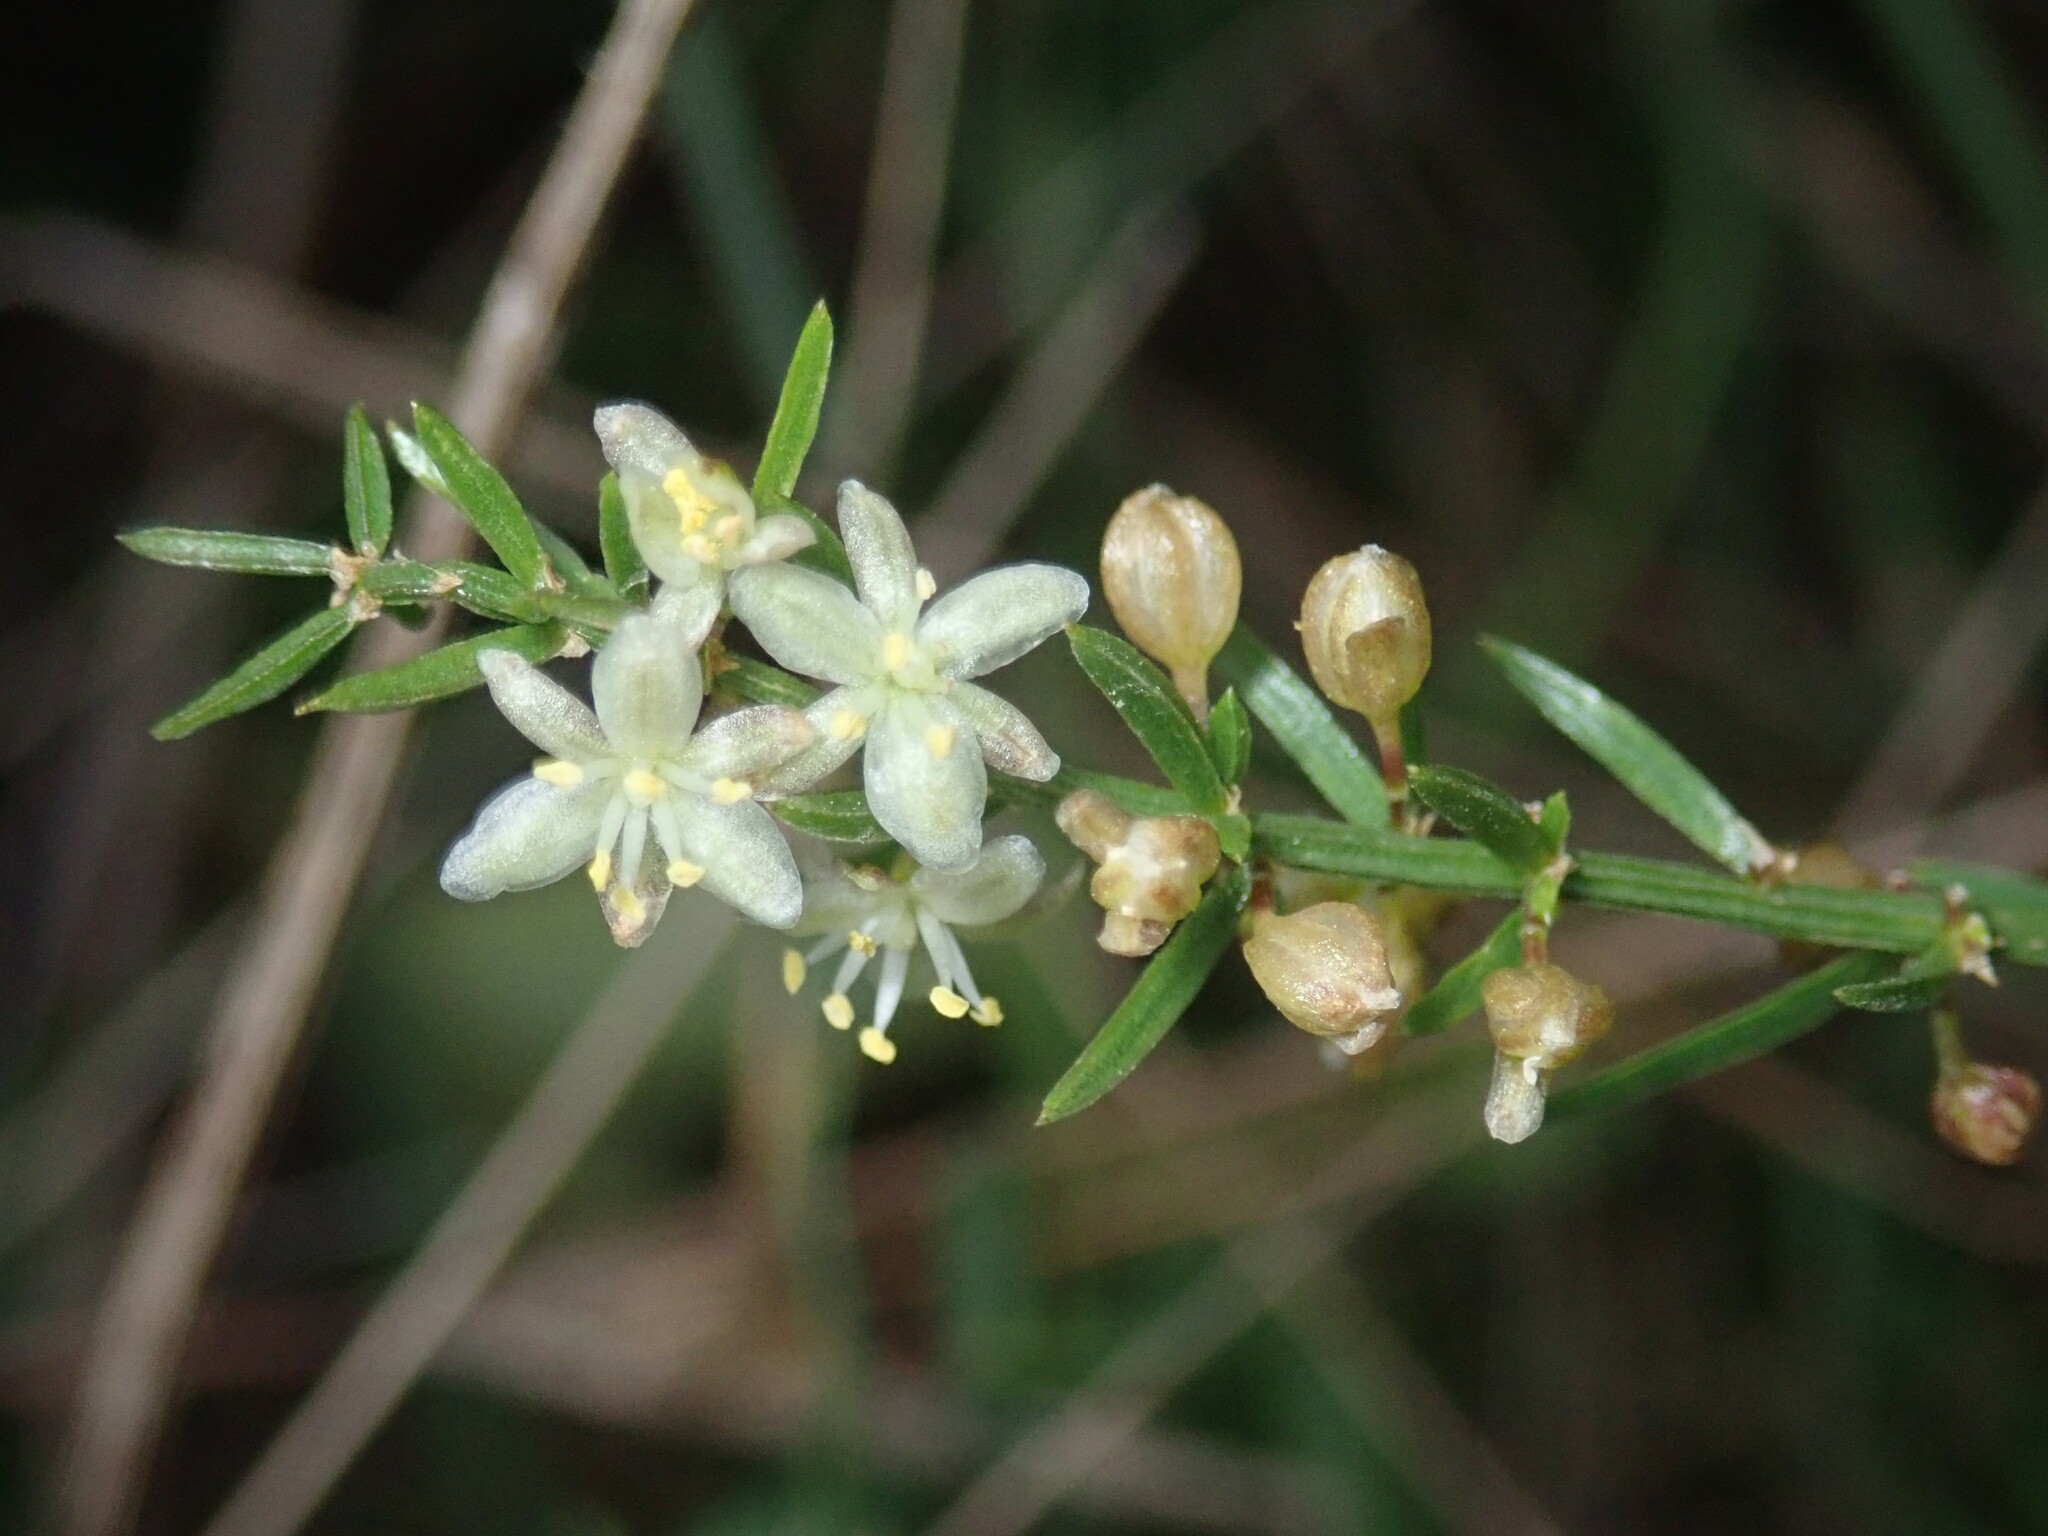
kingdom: Plantae
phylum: Tracheophyta
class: Liliopsida
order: Asparagales
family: Asparagaceae
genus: Asparagus
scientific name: Asparagus cochinchinensis
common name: Chinese asparagus
